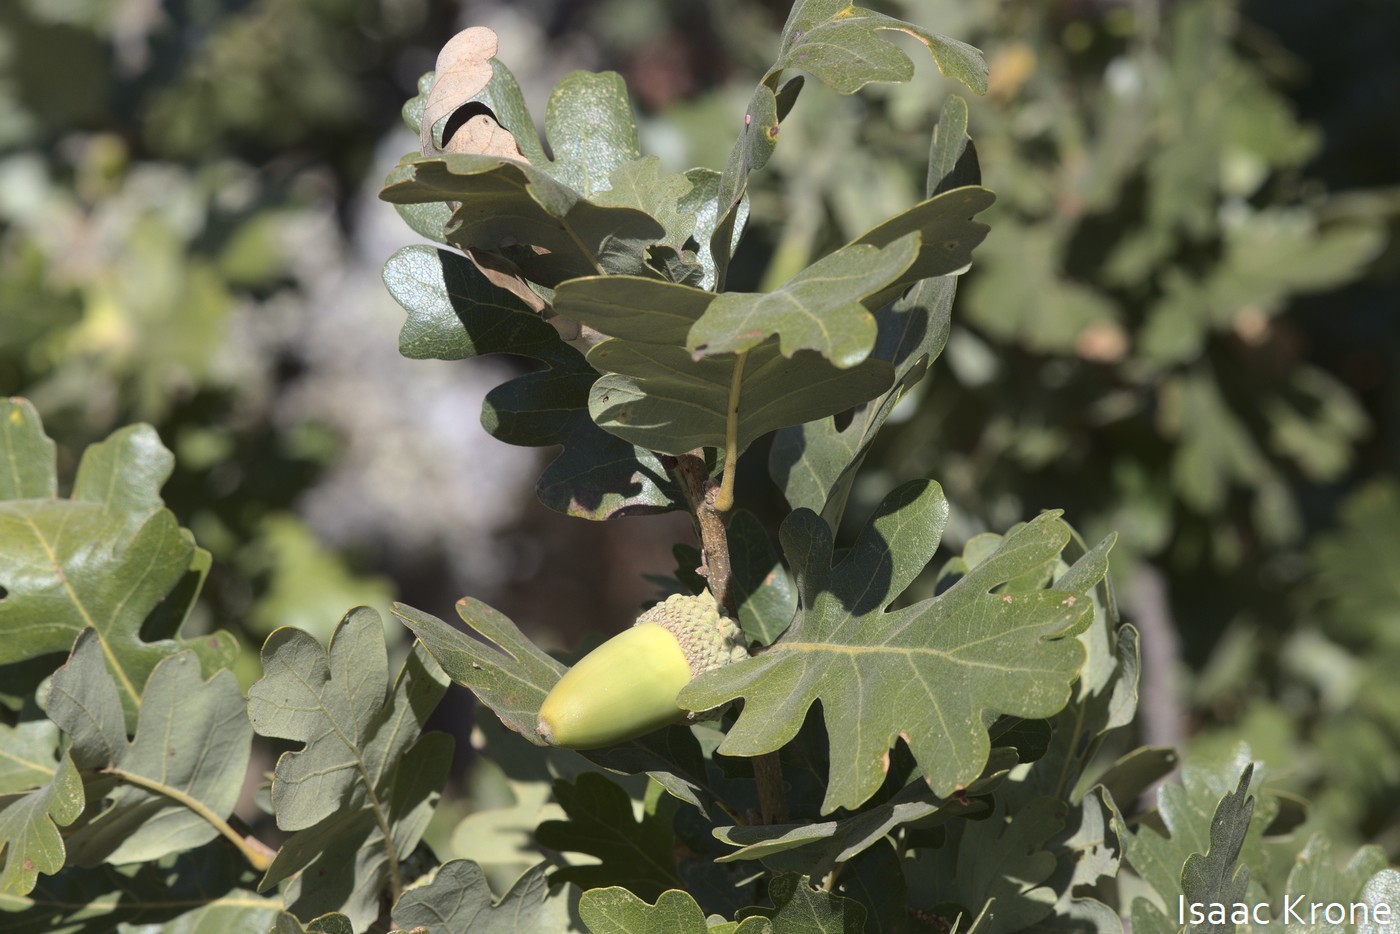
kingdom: Plantae
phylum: Tracheophyta
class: Magnoliopsida
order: Fagales
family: Fagaceae
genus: Quercus
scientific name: Quercus lobata
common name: Valley oak
